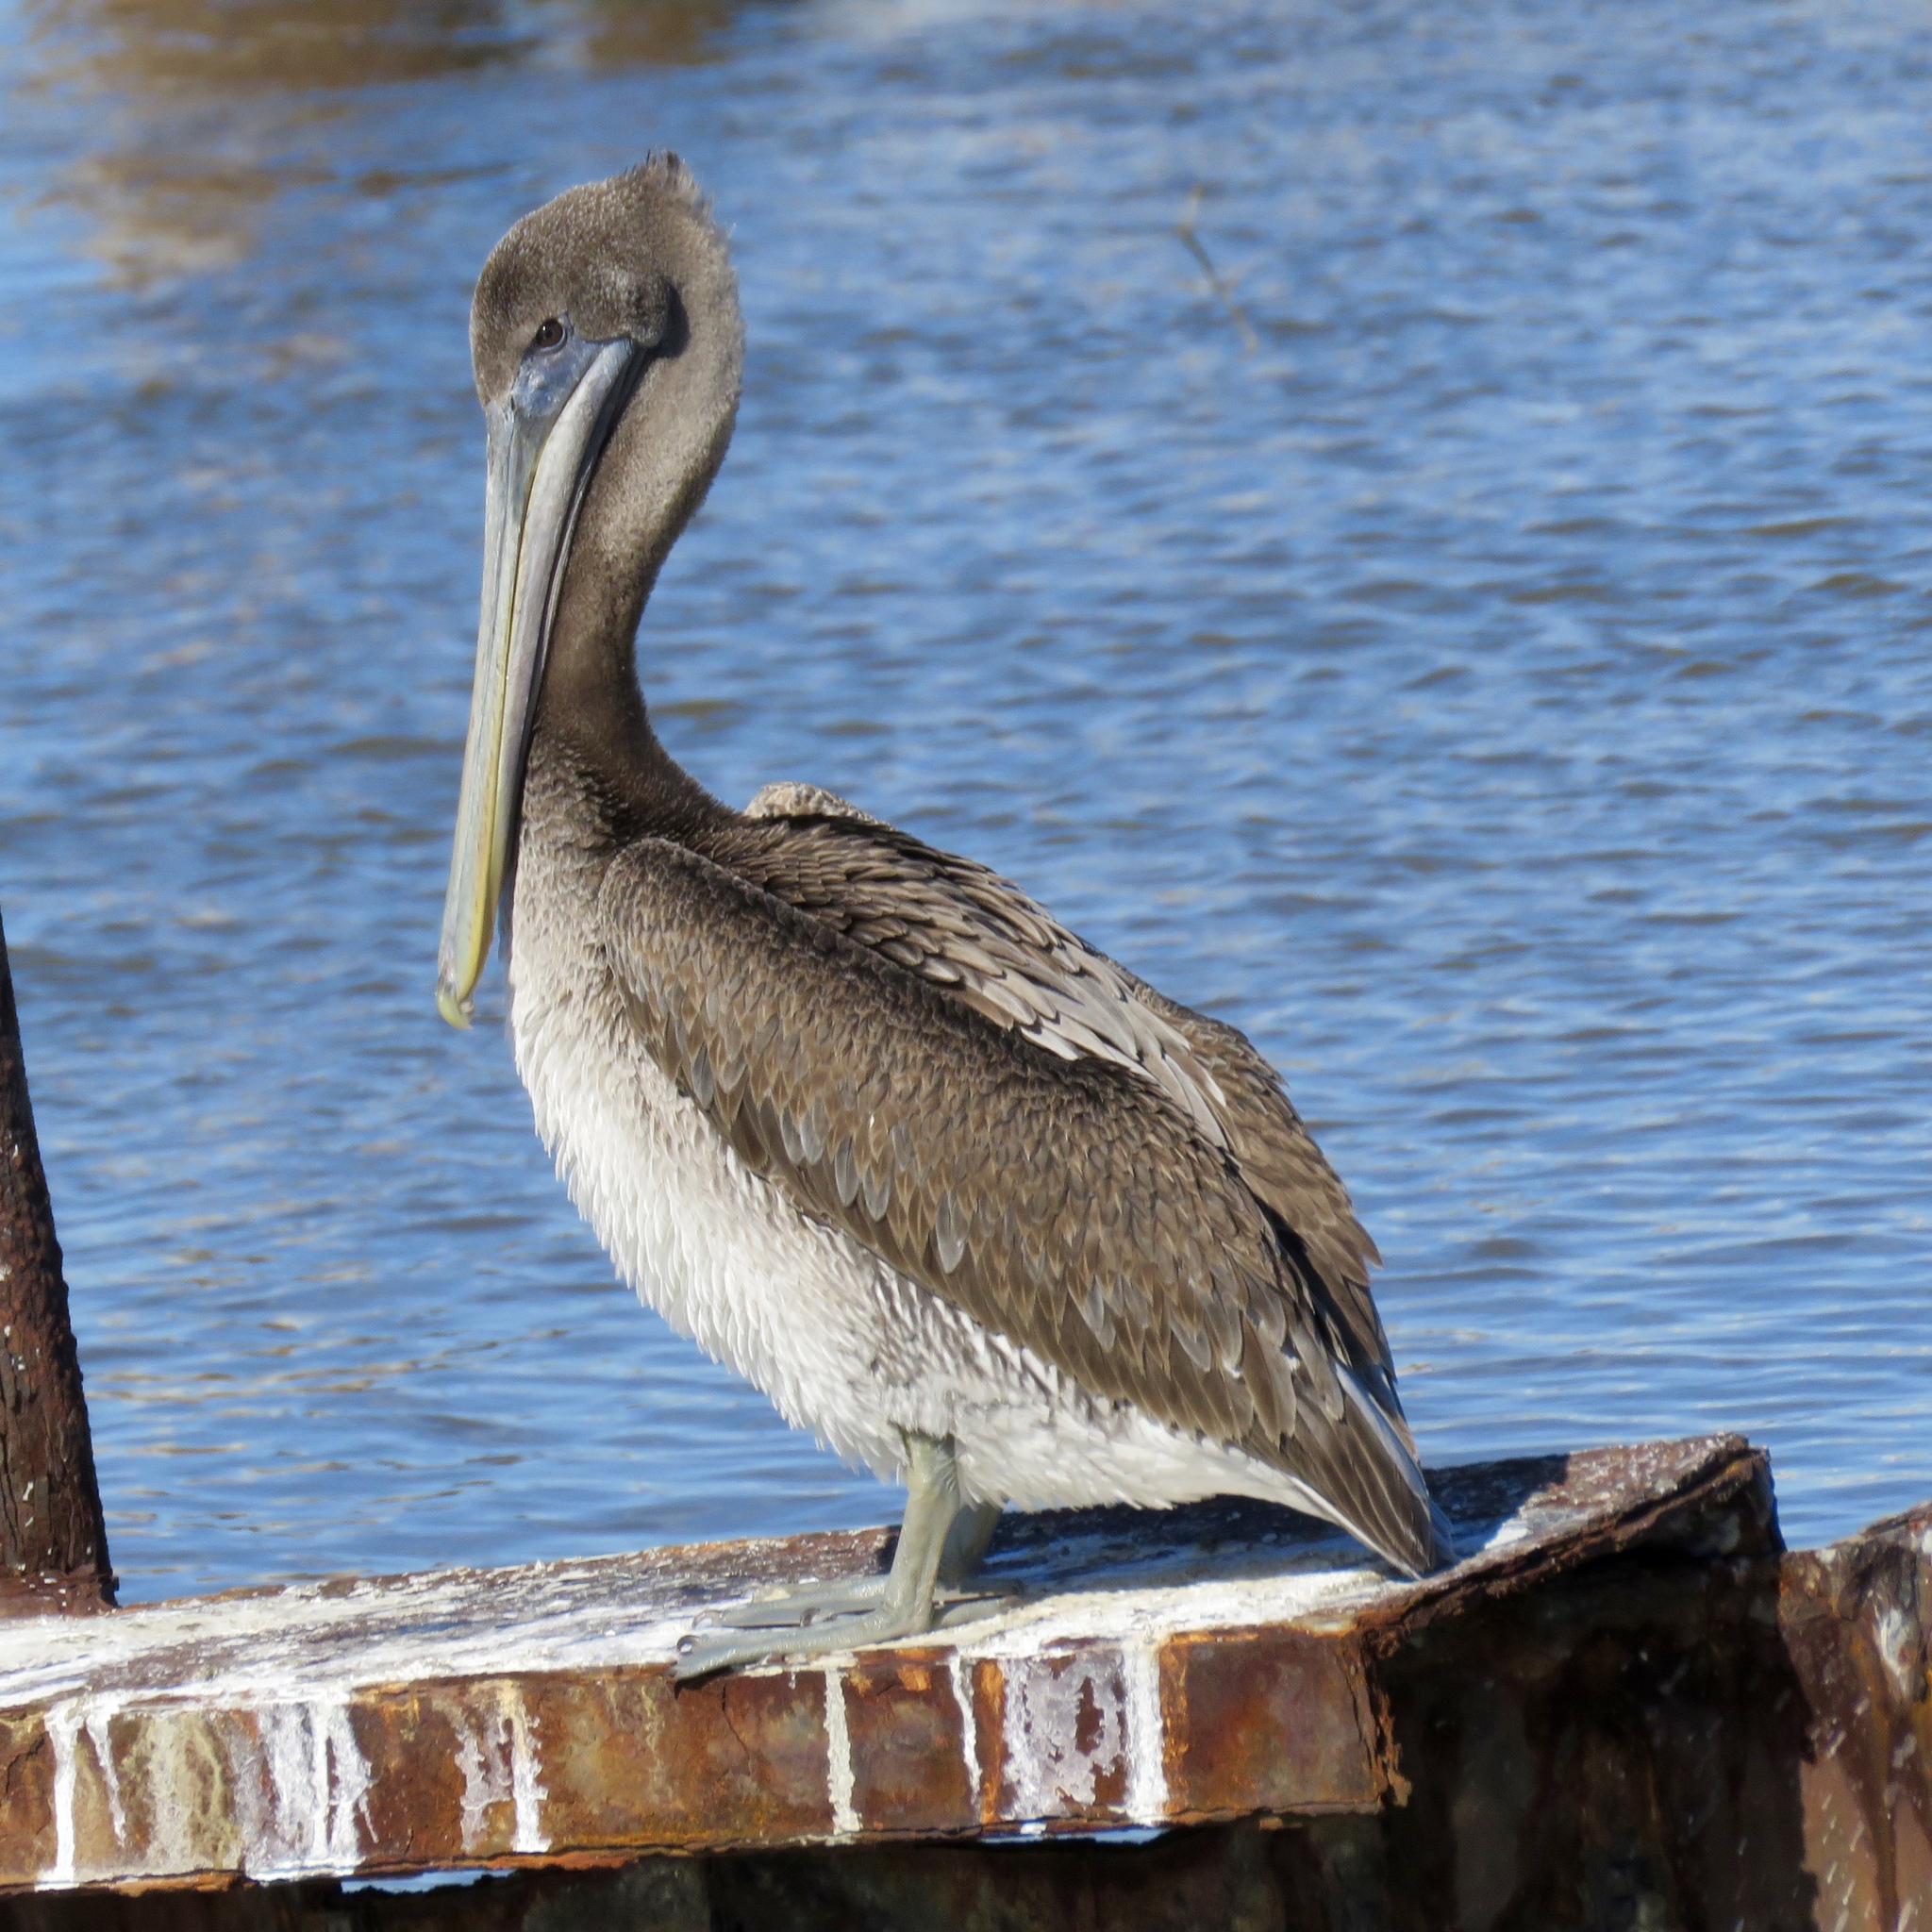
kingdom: Animalia
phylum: Chordata
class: Aves
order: Pelecaniformes
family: Pelecanidae
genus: Pelecanus
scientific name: Pelecanus occidentalis
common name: Brown pelican
